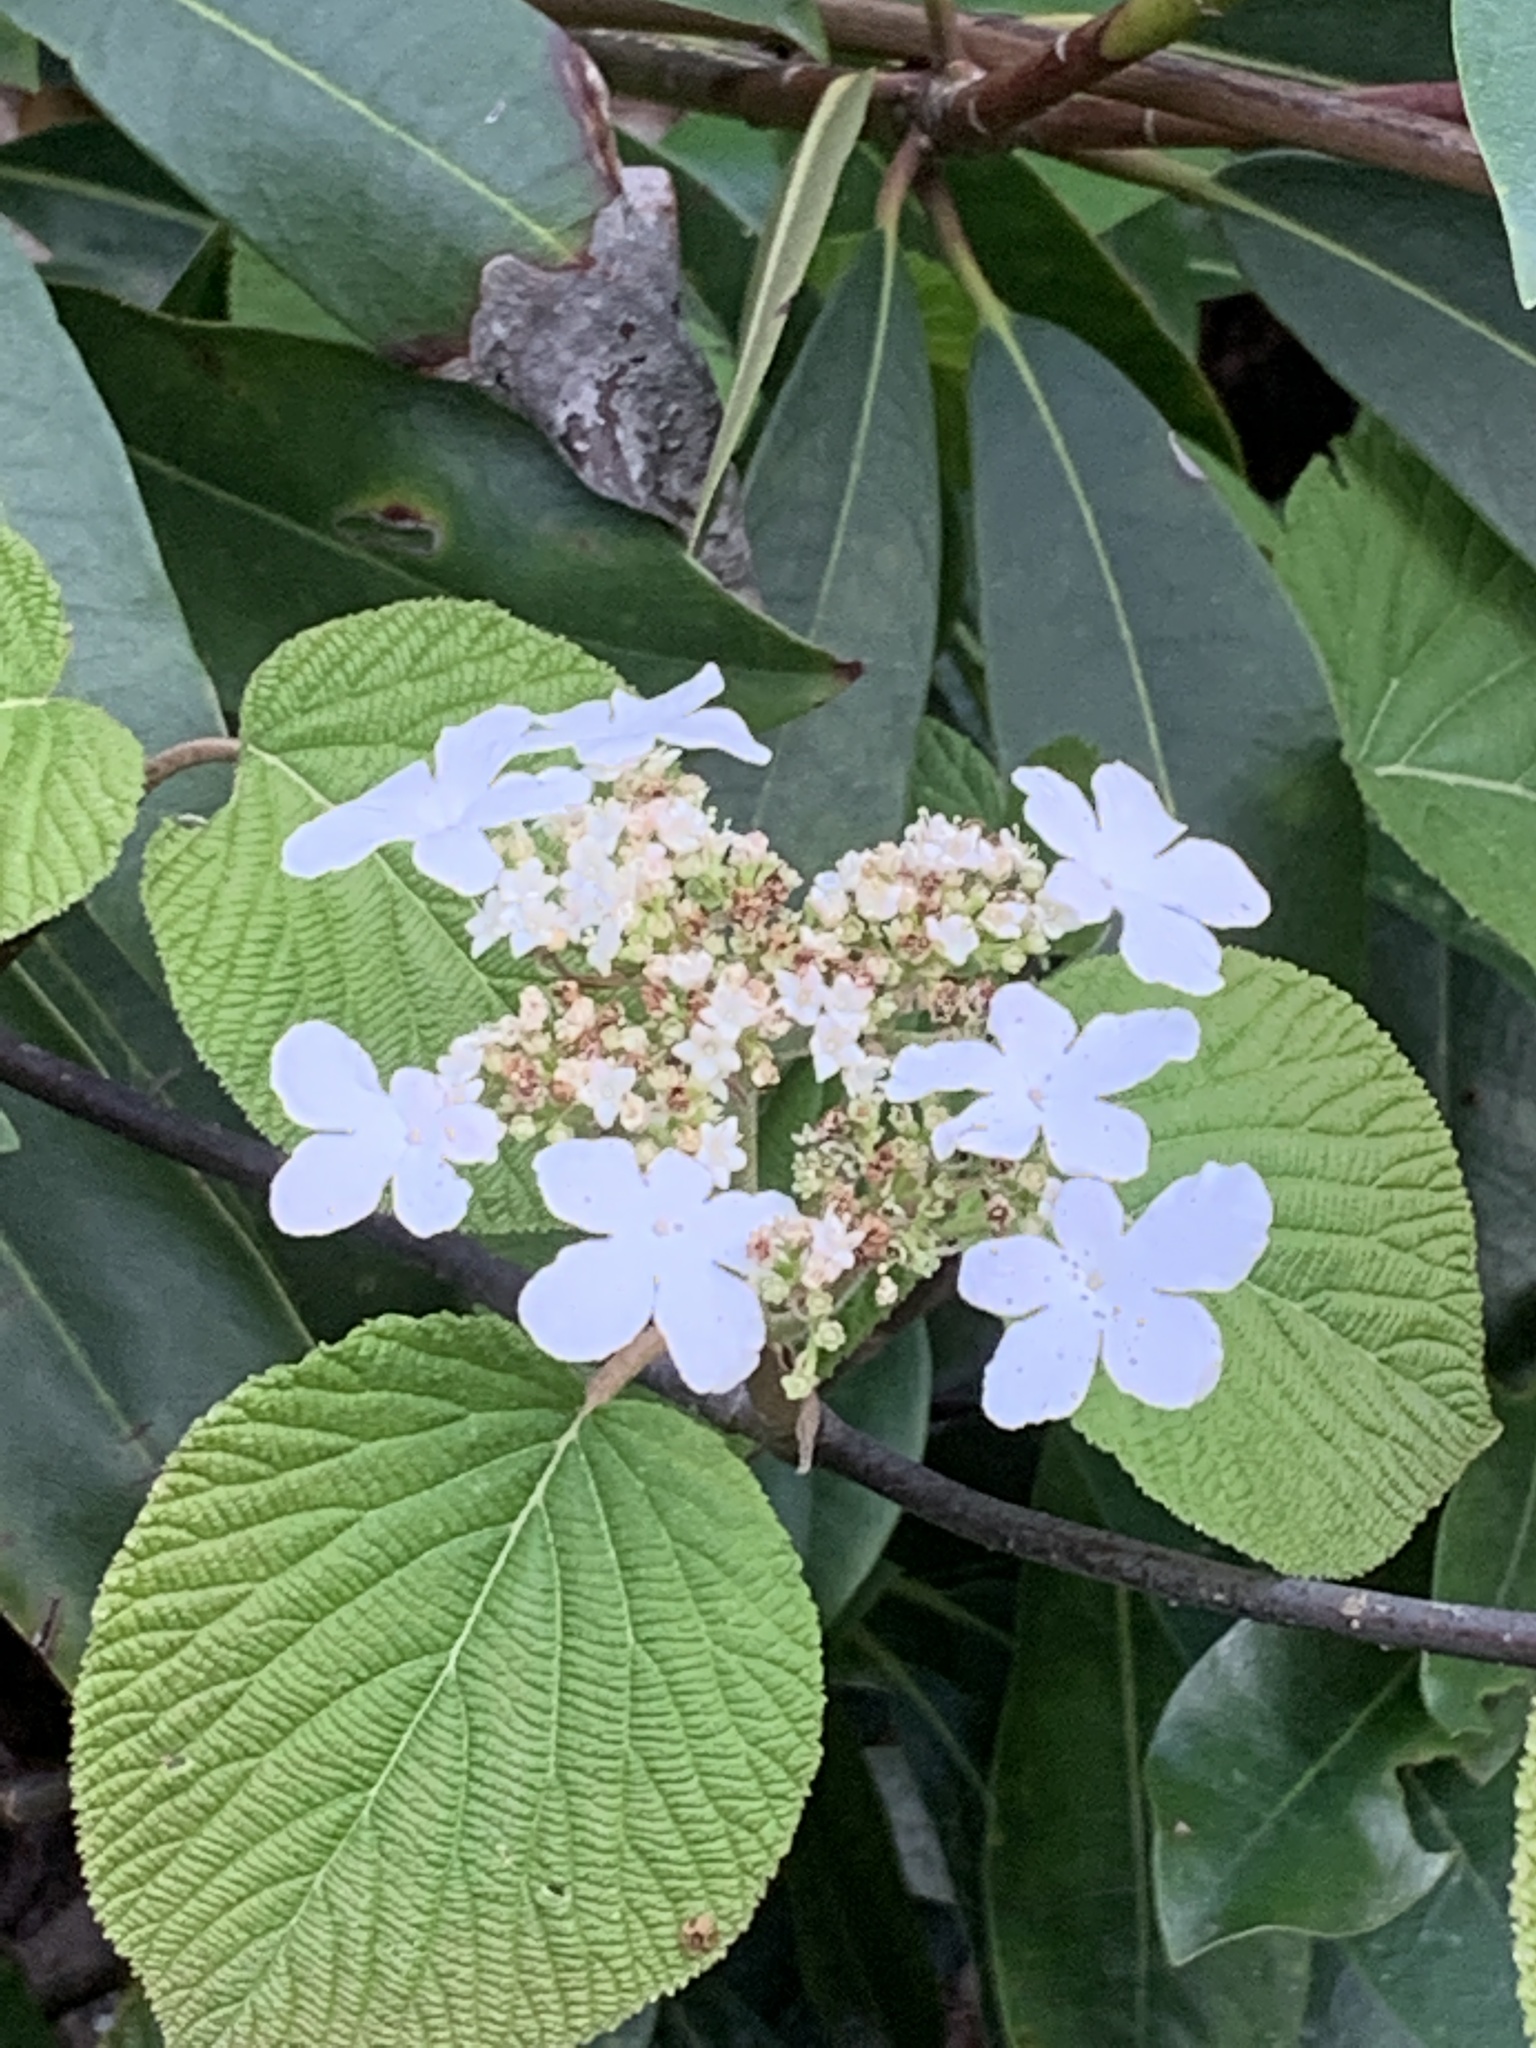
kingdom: Plantae
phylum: Tracheophyta
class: Magnoliopsida
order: Dipsacales
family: Viburnaceae
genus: Viburnum
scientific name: Viburnum lantanoides
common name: Hobblebush
